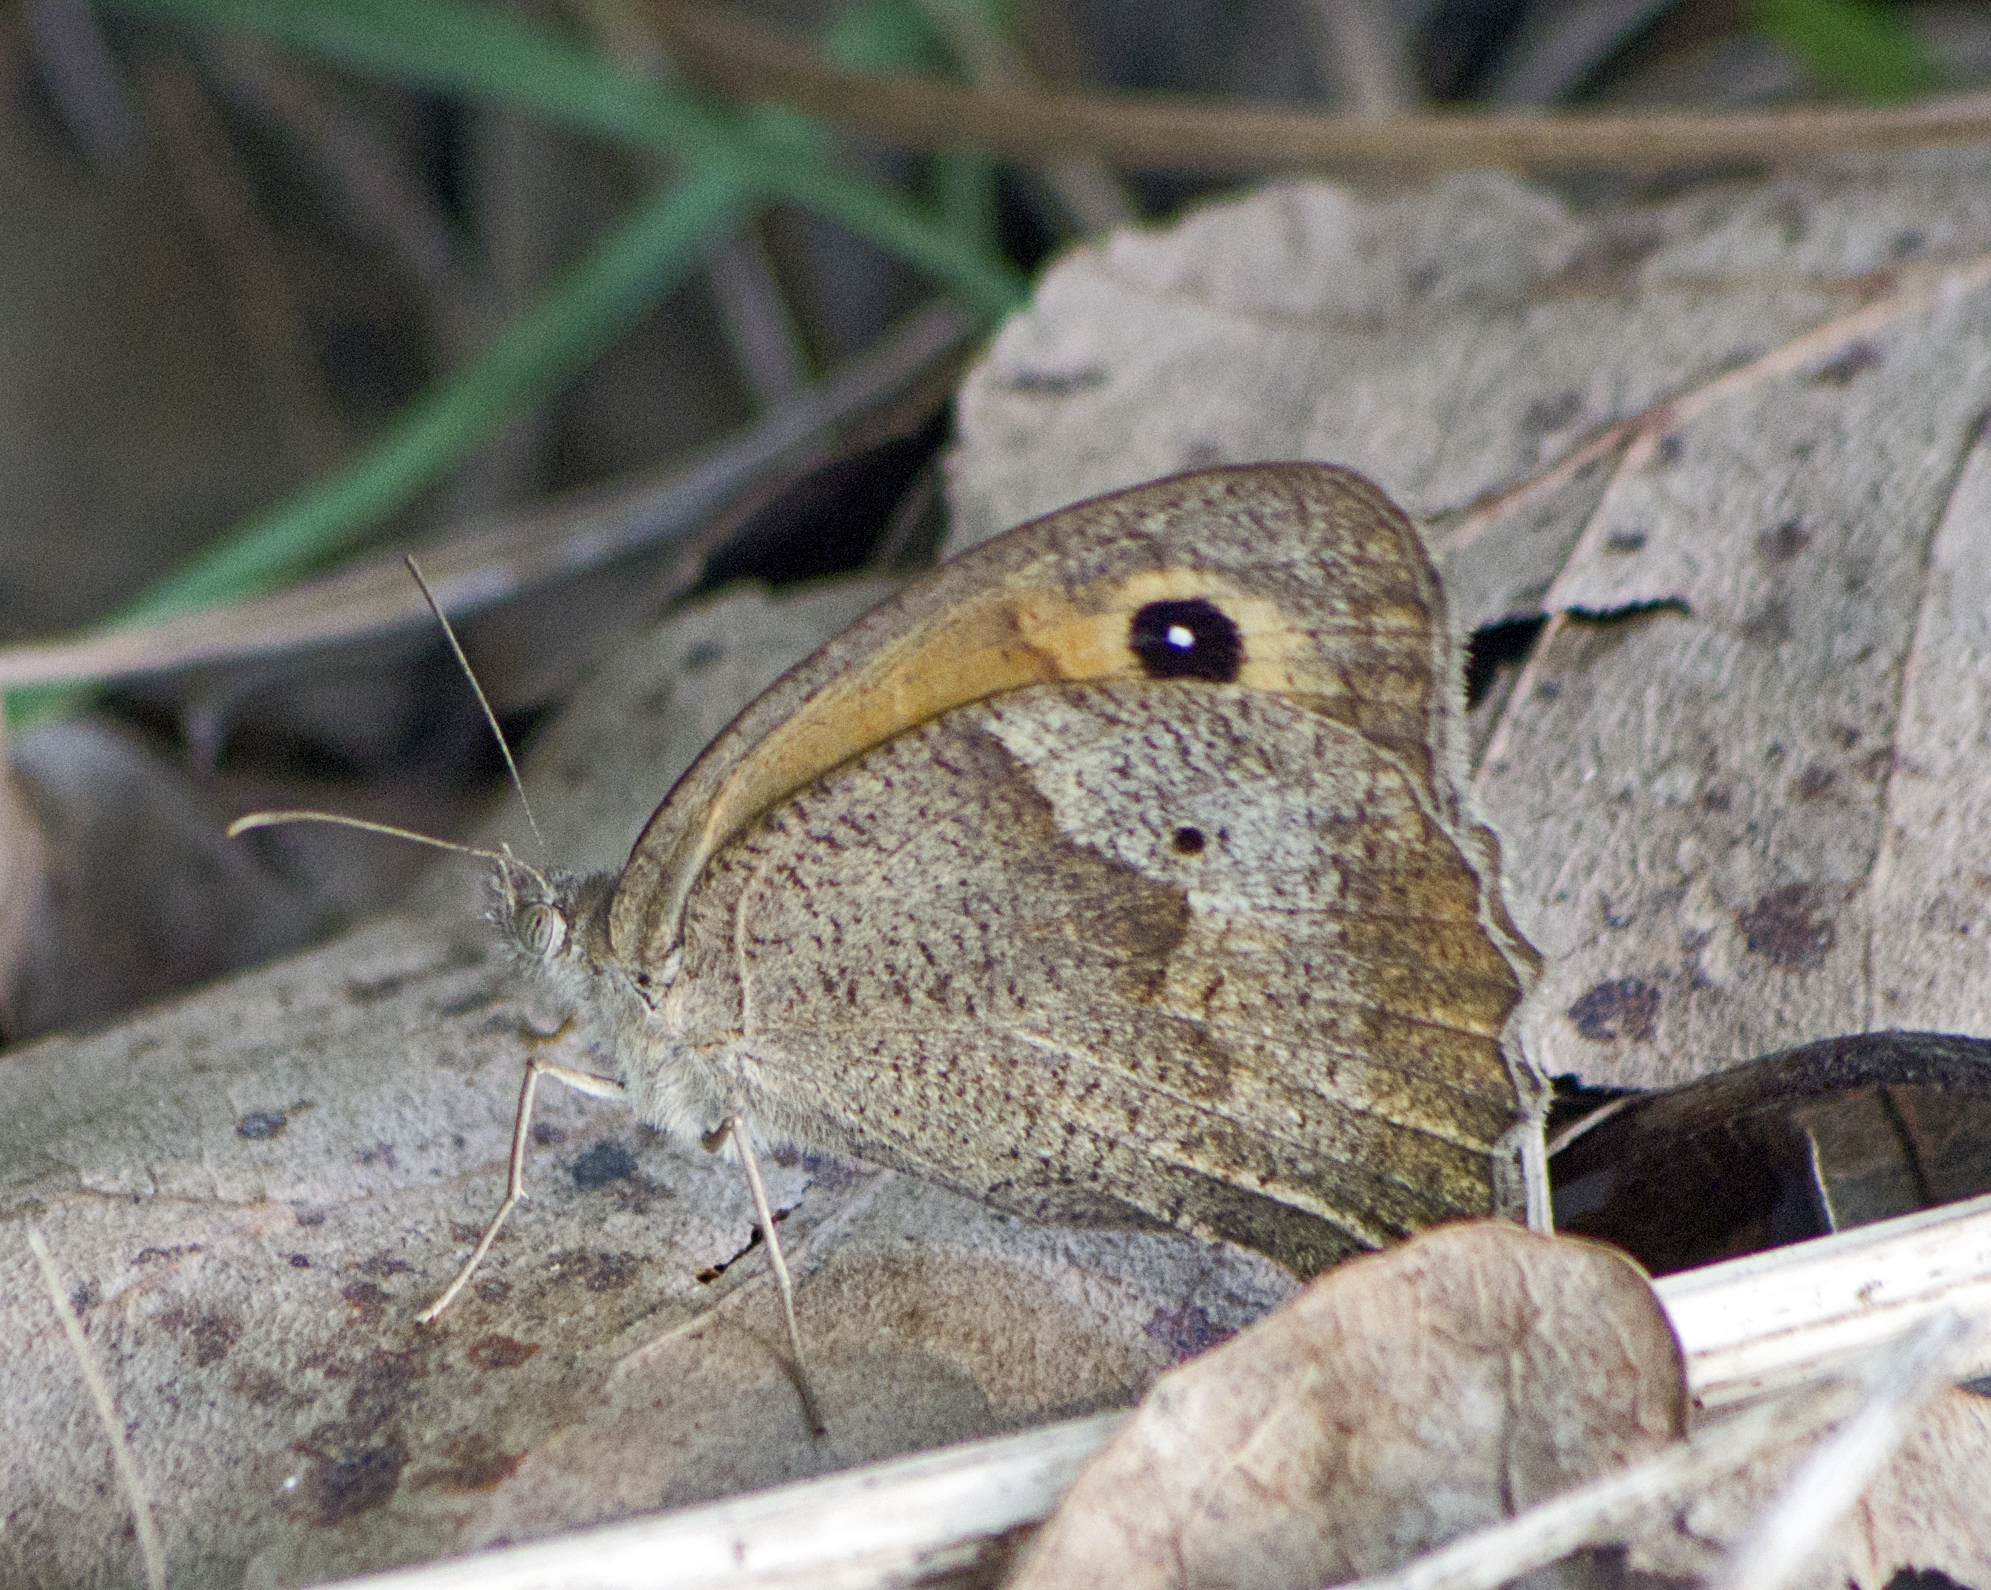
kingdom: Animalia
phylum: Arthropoda
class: Insecta
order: Lepidoptera
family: Nymphalidae
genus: Maniola
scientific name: Maniola jurtina
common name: Meadow brown
